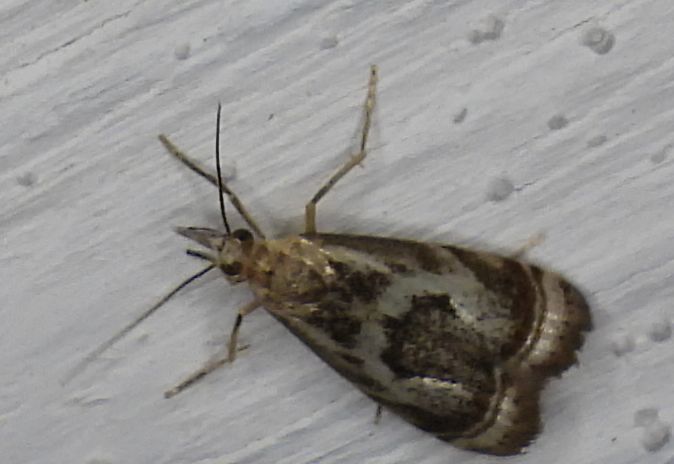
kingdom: Animalia
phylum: Arthropoda
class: Insecta
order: Lepidoptera
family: Crambidae
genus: Microcrambus
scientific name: Microcrambus elegans
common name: Elegant grass-veneer
